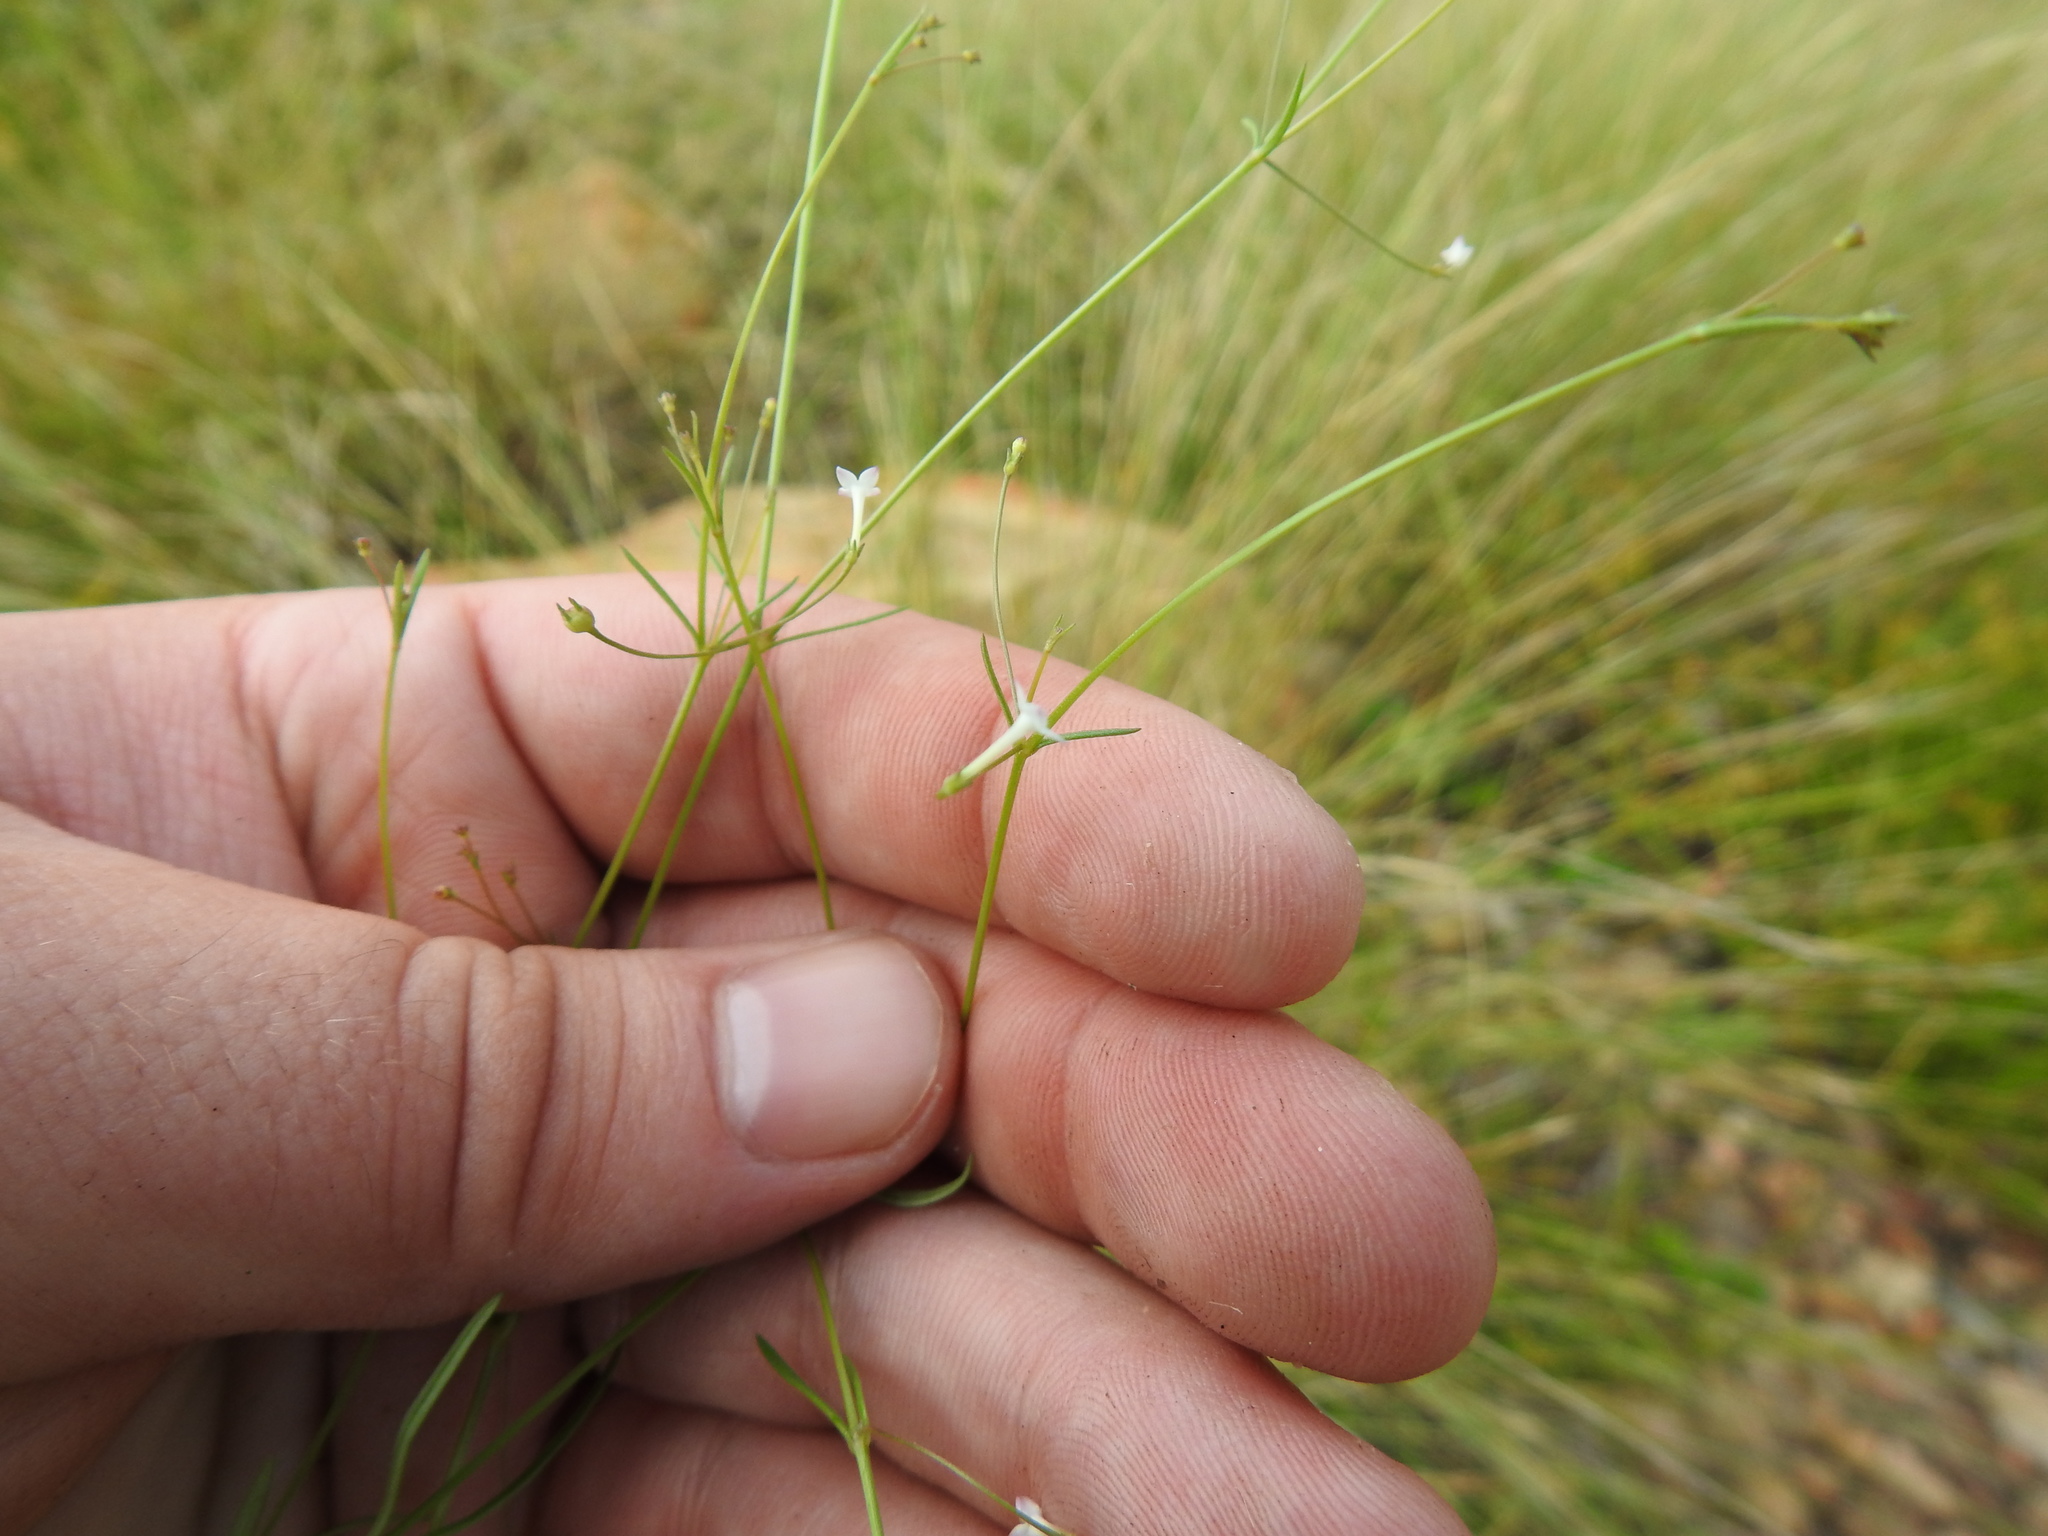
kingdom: Plantae
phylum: Tracheophyta
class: Magnoliopsida
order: Gentianales
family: Rubiaceae
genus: Oldenlandia
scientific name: Oldenlandia herbacea
